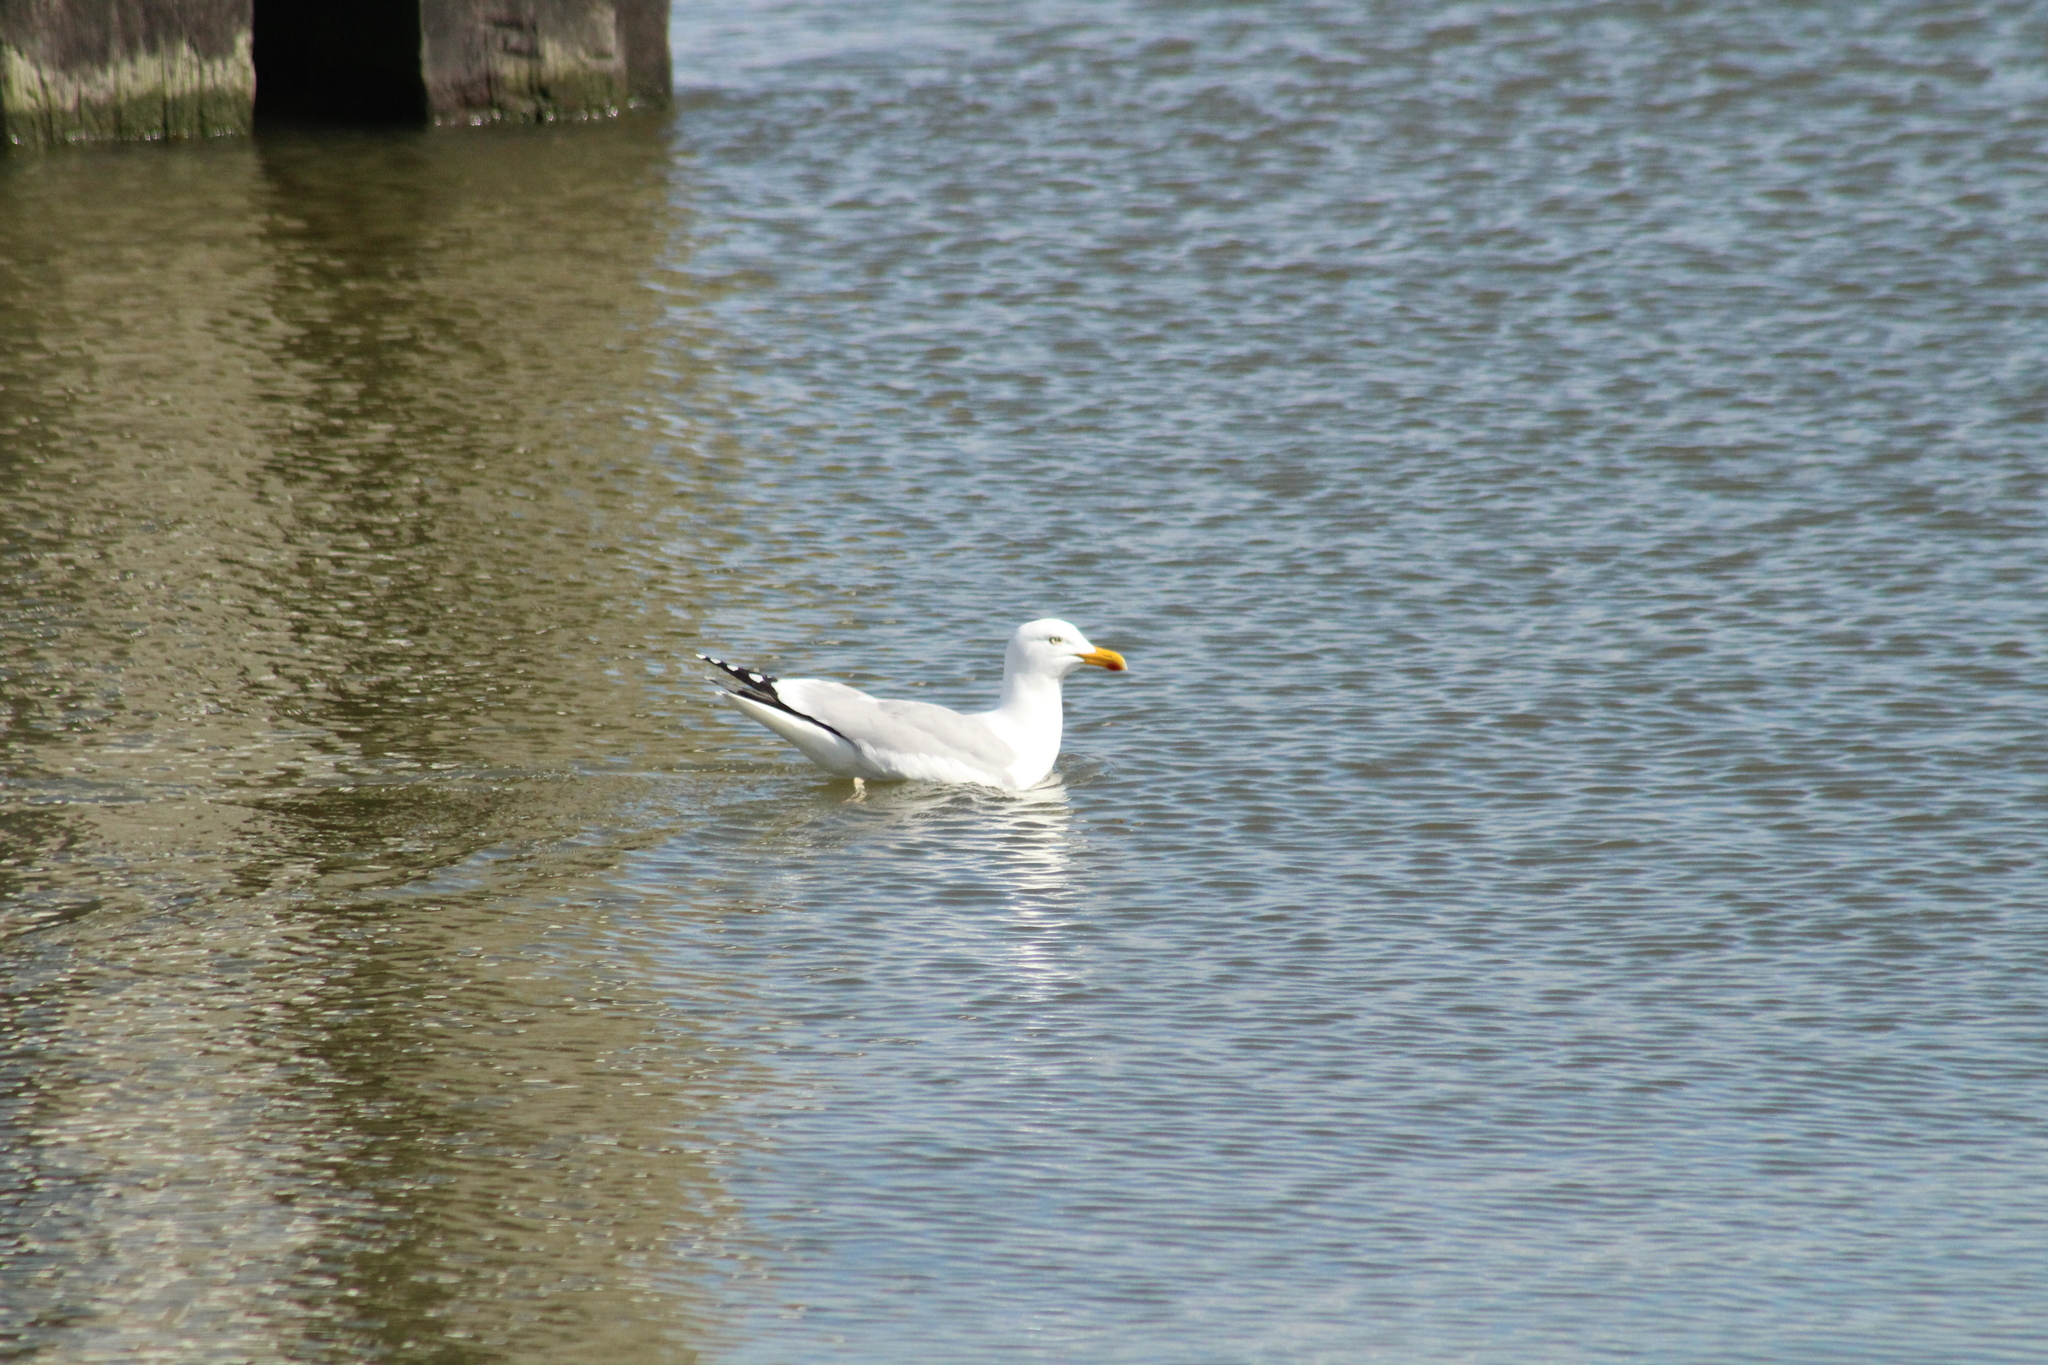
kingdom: Animalia
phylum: Chordata
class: Aves
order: Charadriiformes
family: Laridae
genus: Larus
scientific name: Larus argentatus
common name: Herring gull
